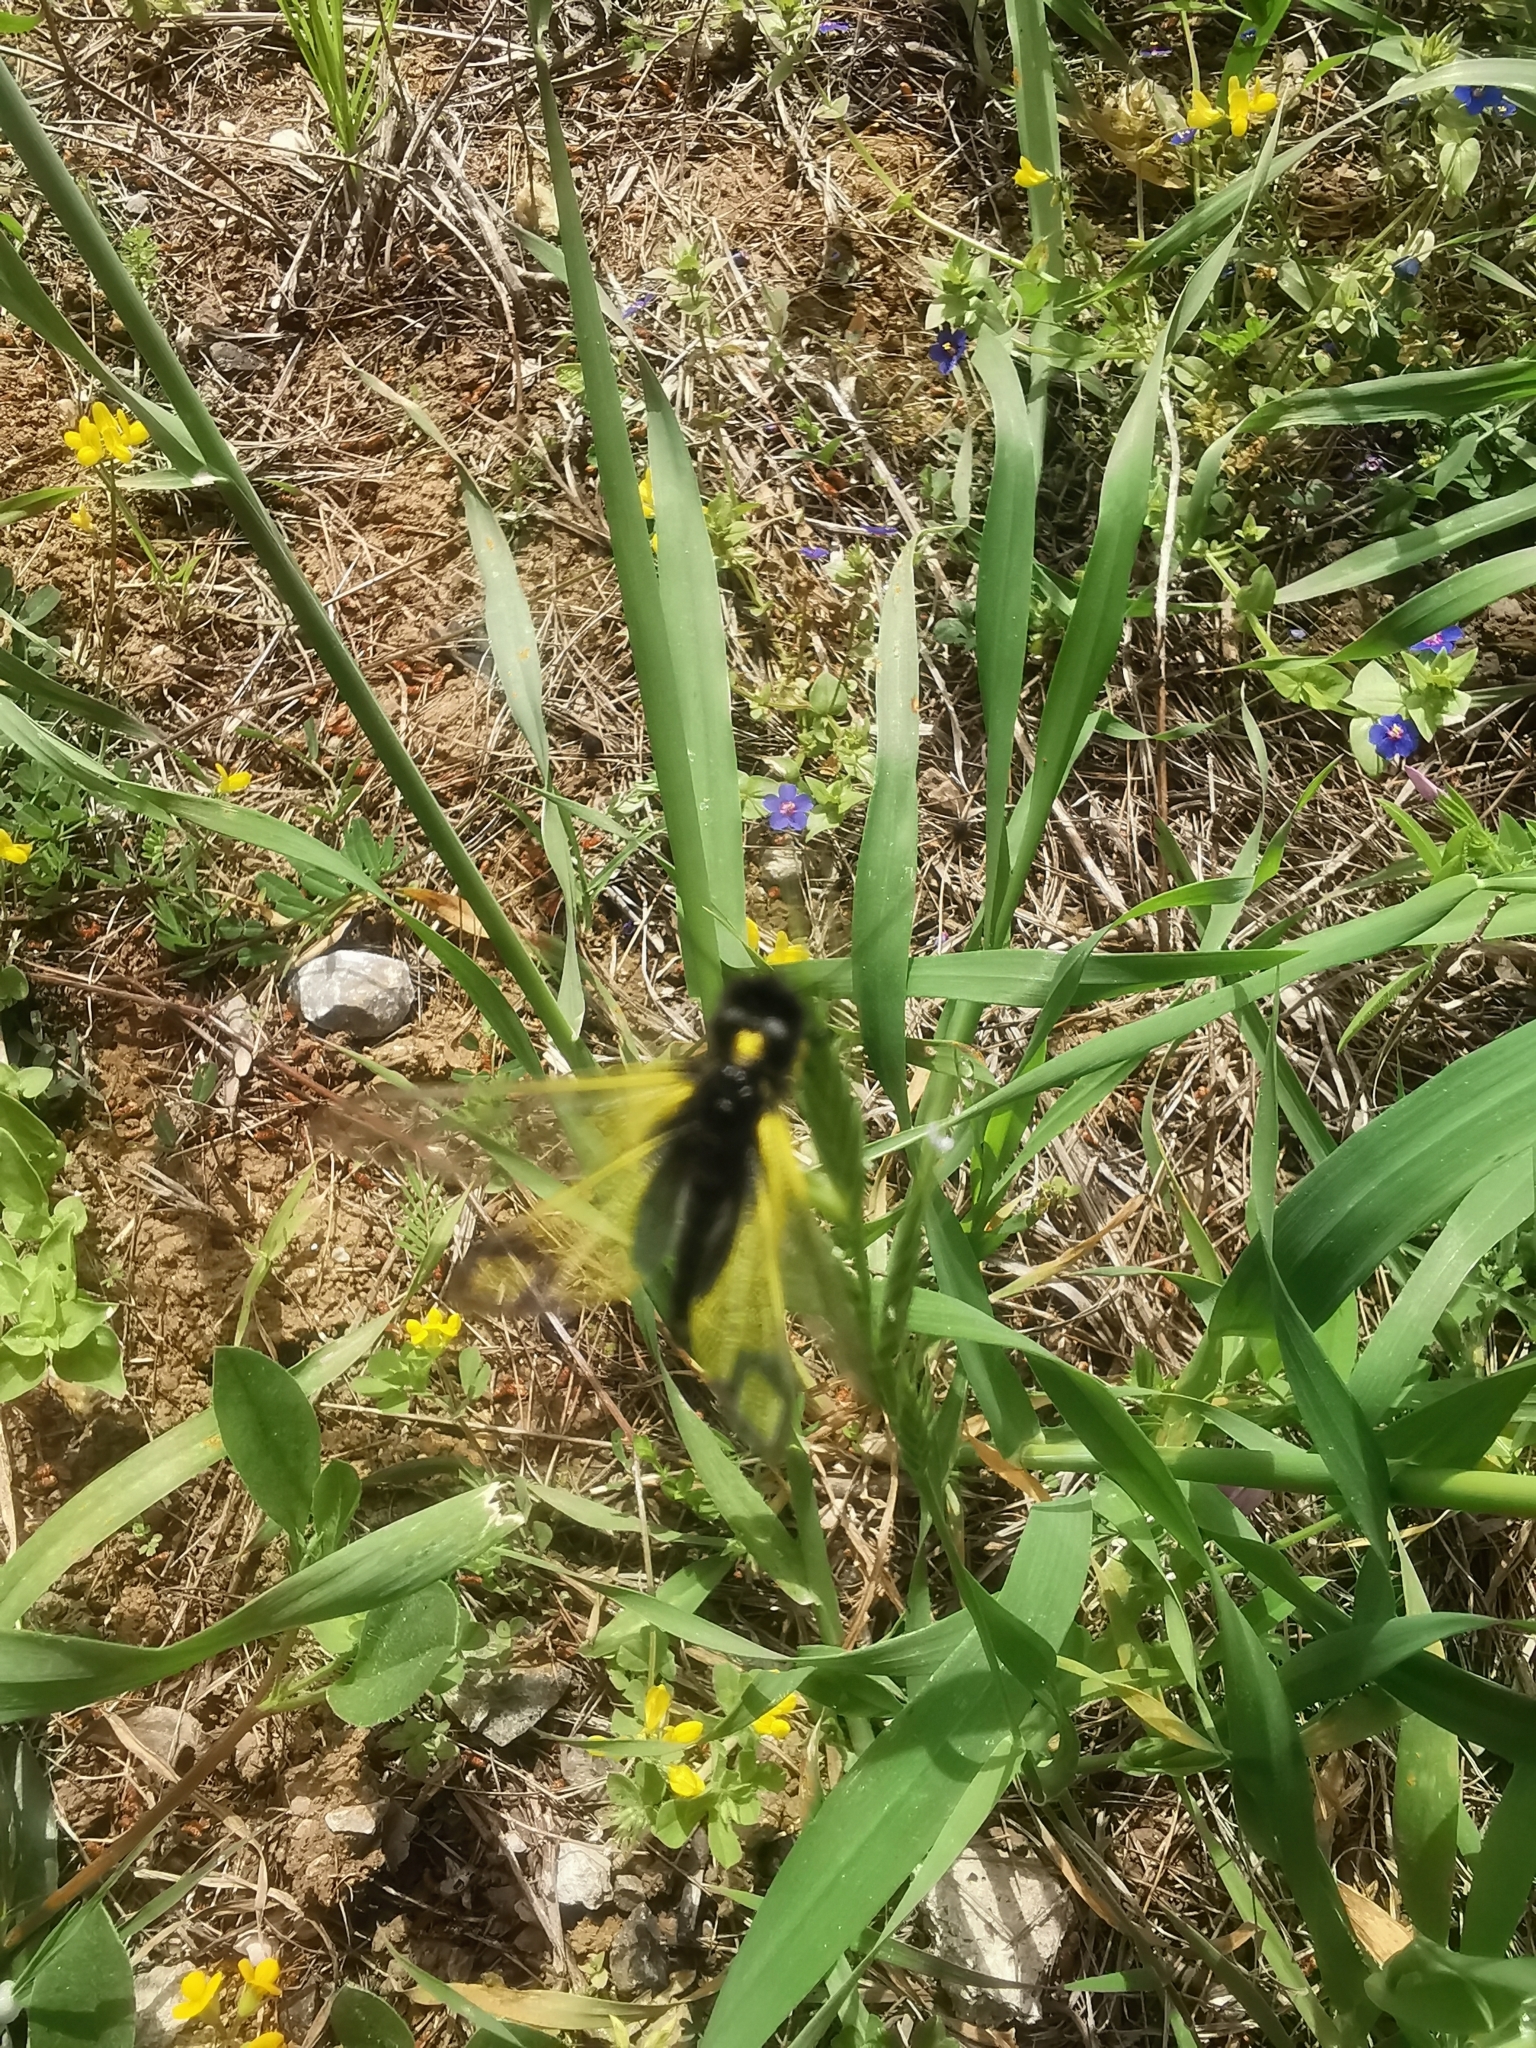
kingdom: Animalia
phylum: Arthropoda
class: Insecta
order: Neuroptera
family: Ascalaphidae
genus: Libelloides
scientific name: Libelloides rhomboideus
